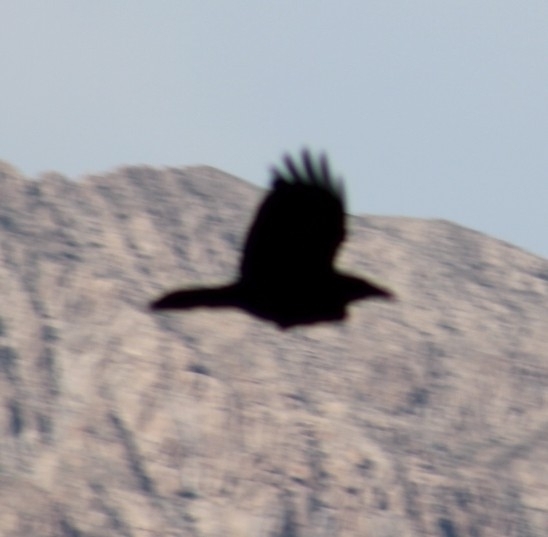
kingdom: Animalia
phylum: Chordata
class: Aves
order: Passeriformes
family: Corvidae
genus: Corvus
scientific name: Corvus corax
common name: Common raven
